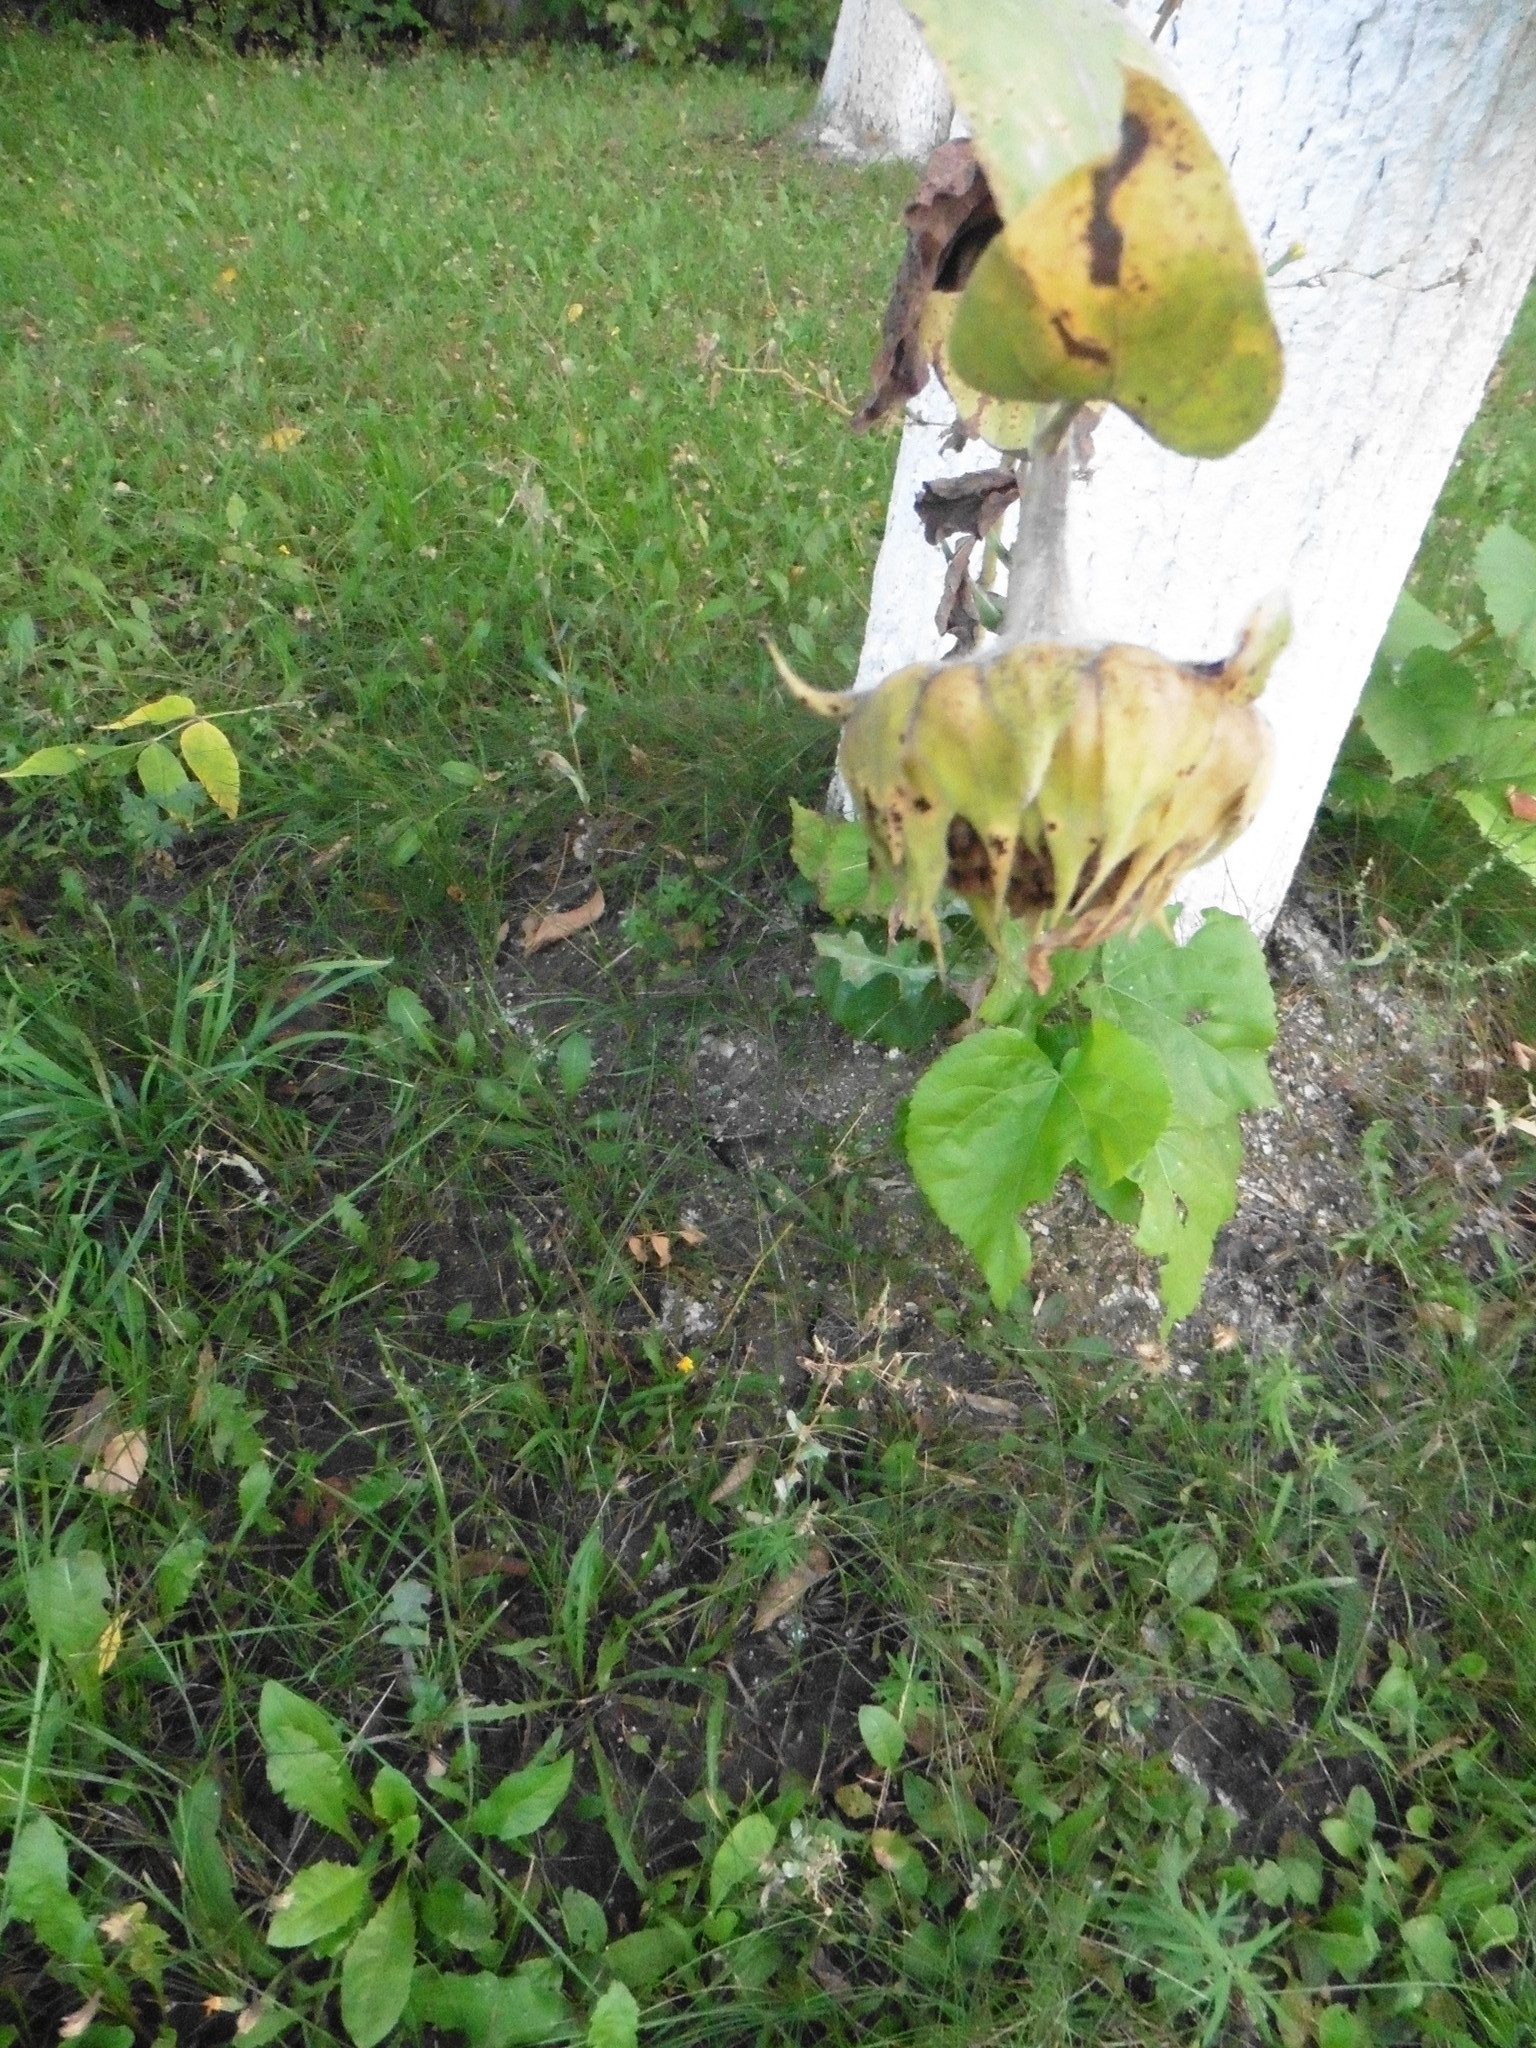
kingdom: Plantae
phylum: Tracheophyta
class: Magnoliopsida
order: Asterales
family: Asteraceae
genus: Helianthus
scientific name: Helianthus annuus
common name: Sunflower
